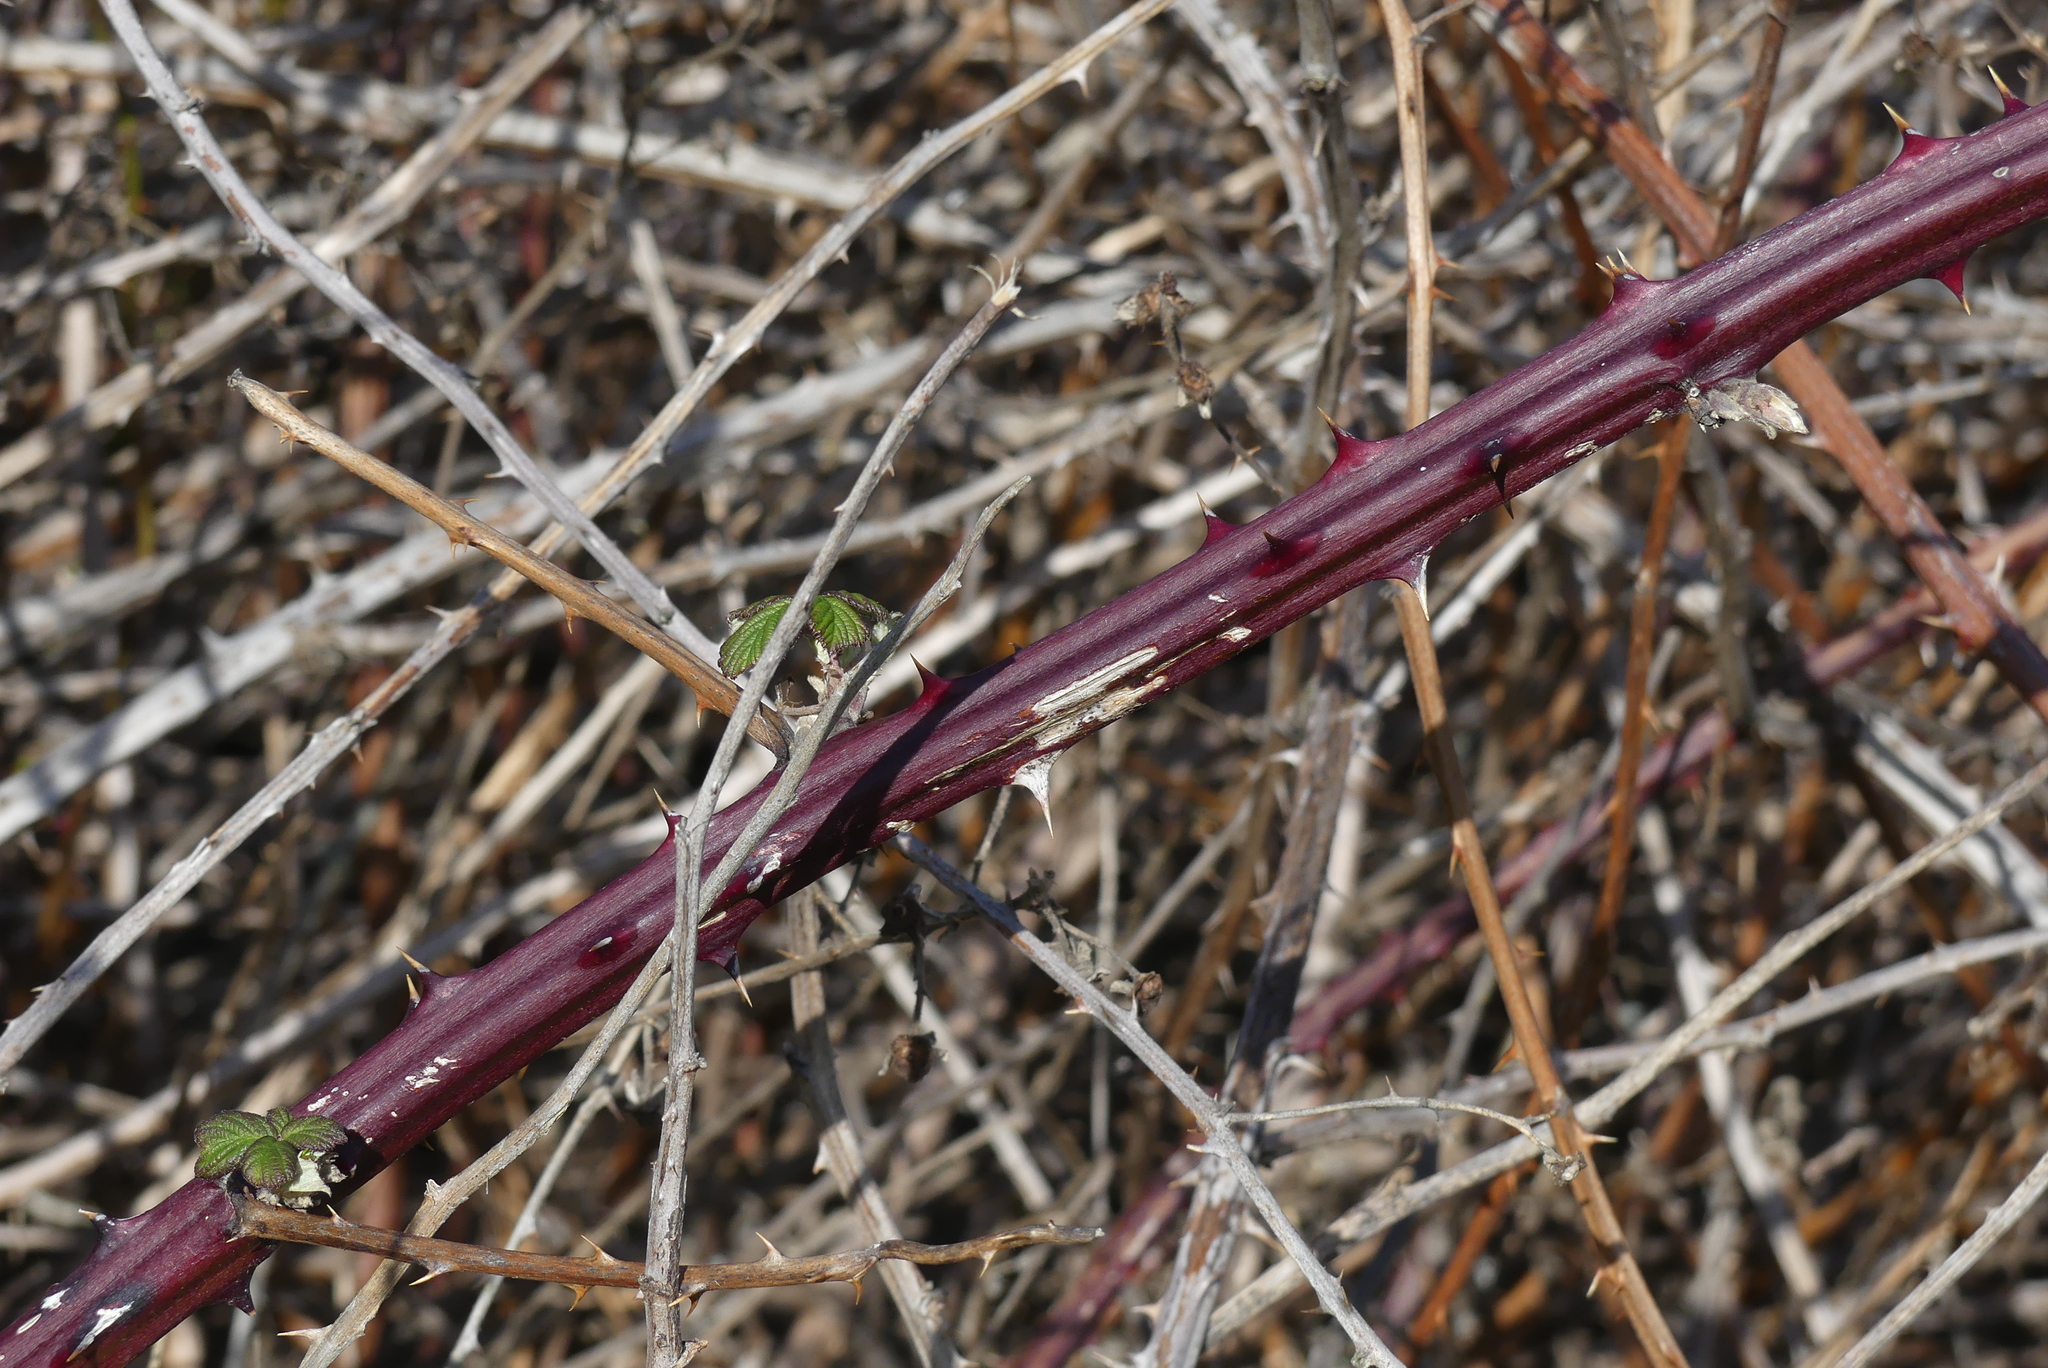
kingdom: Plantae
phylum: Tracheophyta
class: Magnoliopsida
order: Rosales
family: Rosaceae
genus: Rubus
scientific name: Rubus bifrons
